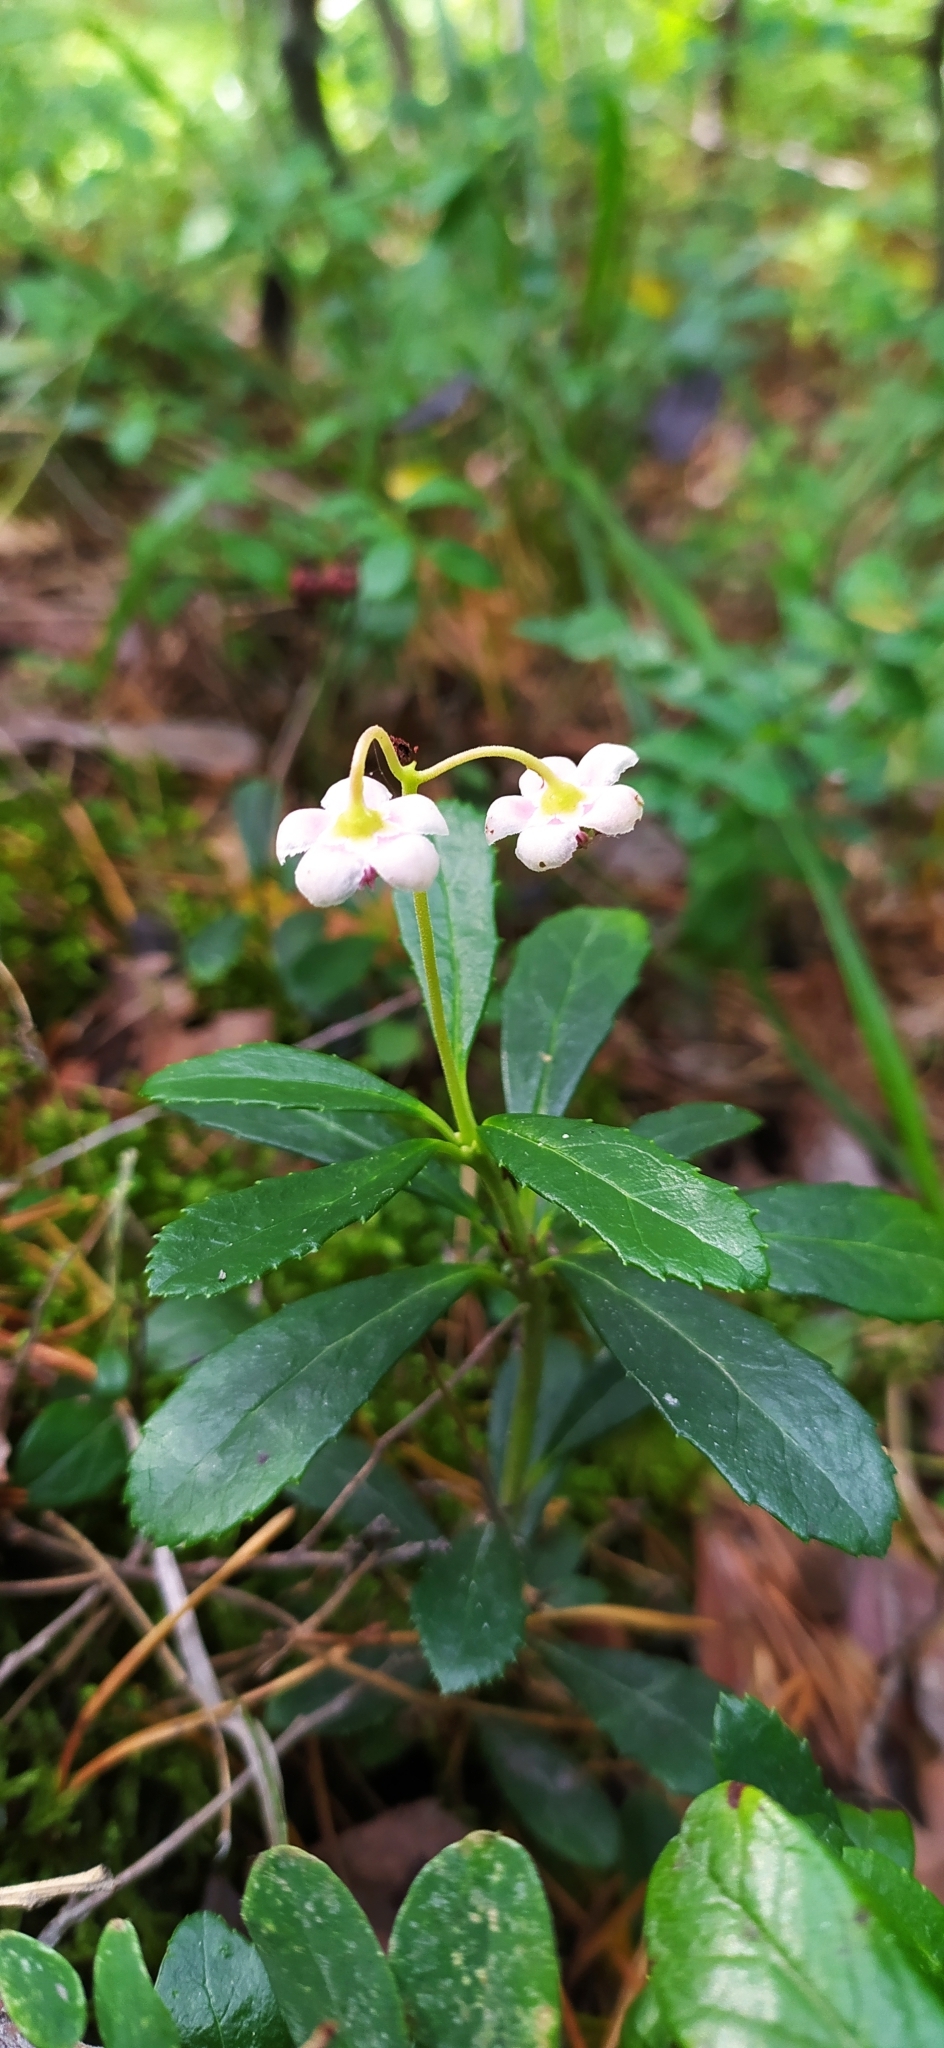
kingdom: Plantae
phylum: Tracheophyta
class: Magnoliopsida
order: Ericales
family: Ericaceae
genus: Chimaphila
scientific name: Chimaphila umbellata
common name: Pipsissewa
